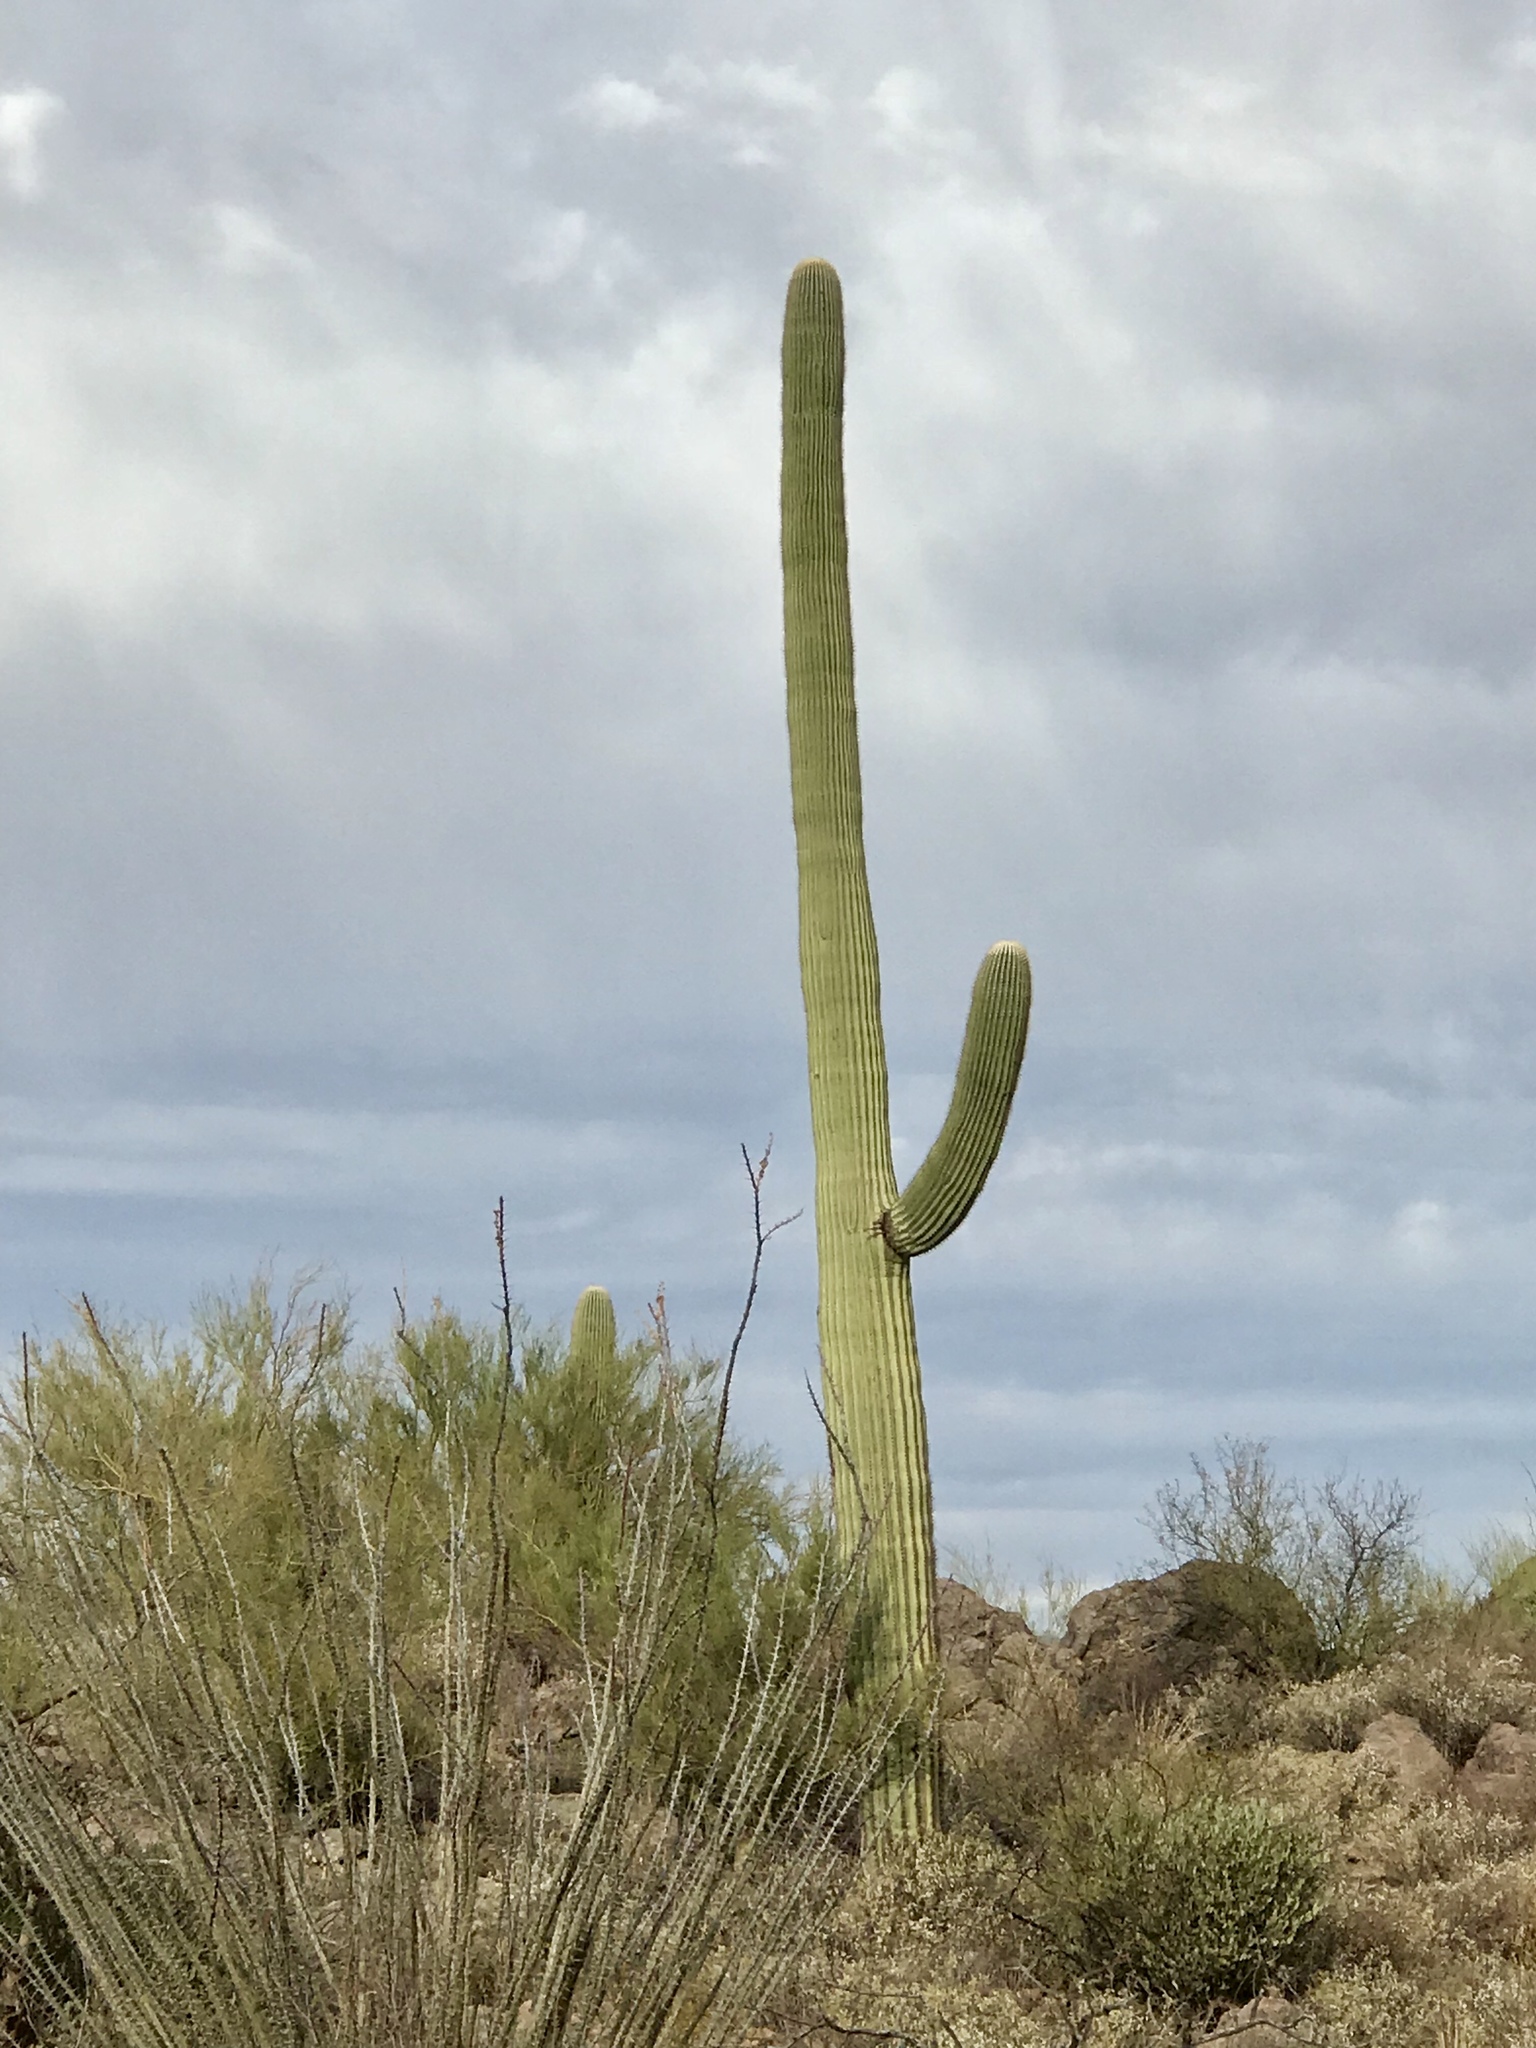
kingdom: Plantae
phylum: Tracheophyta
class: Magnoliopsida
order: Caryophyllales
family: Cactaceae
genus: Carnegiea
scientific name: Carnegiea gigantea
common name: Saguaro
